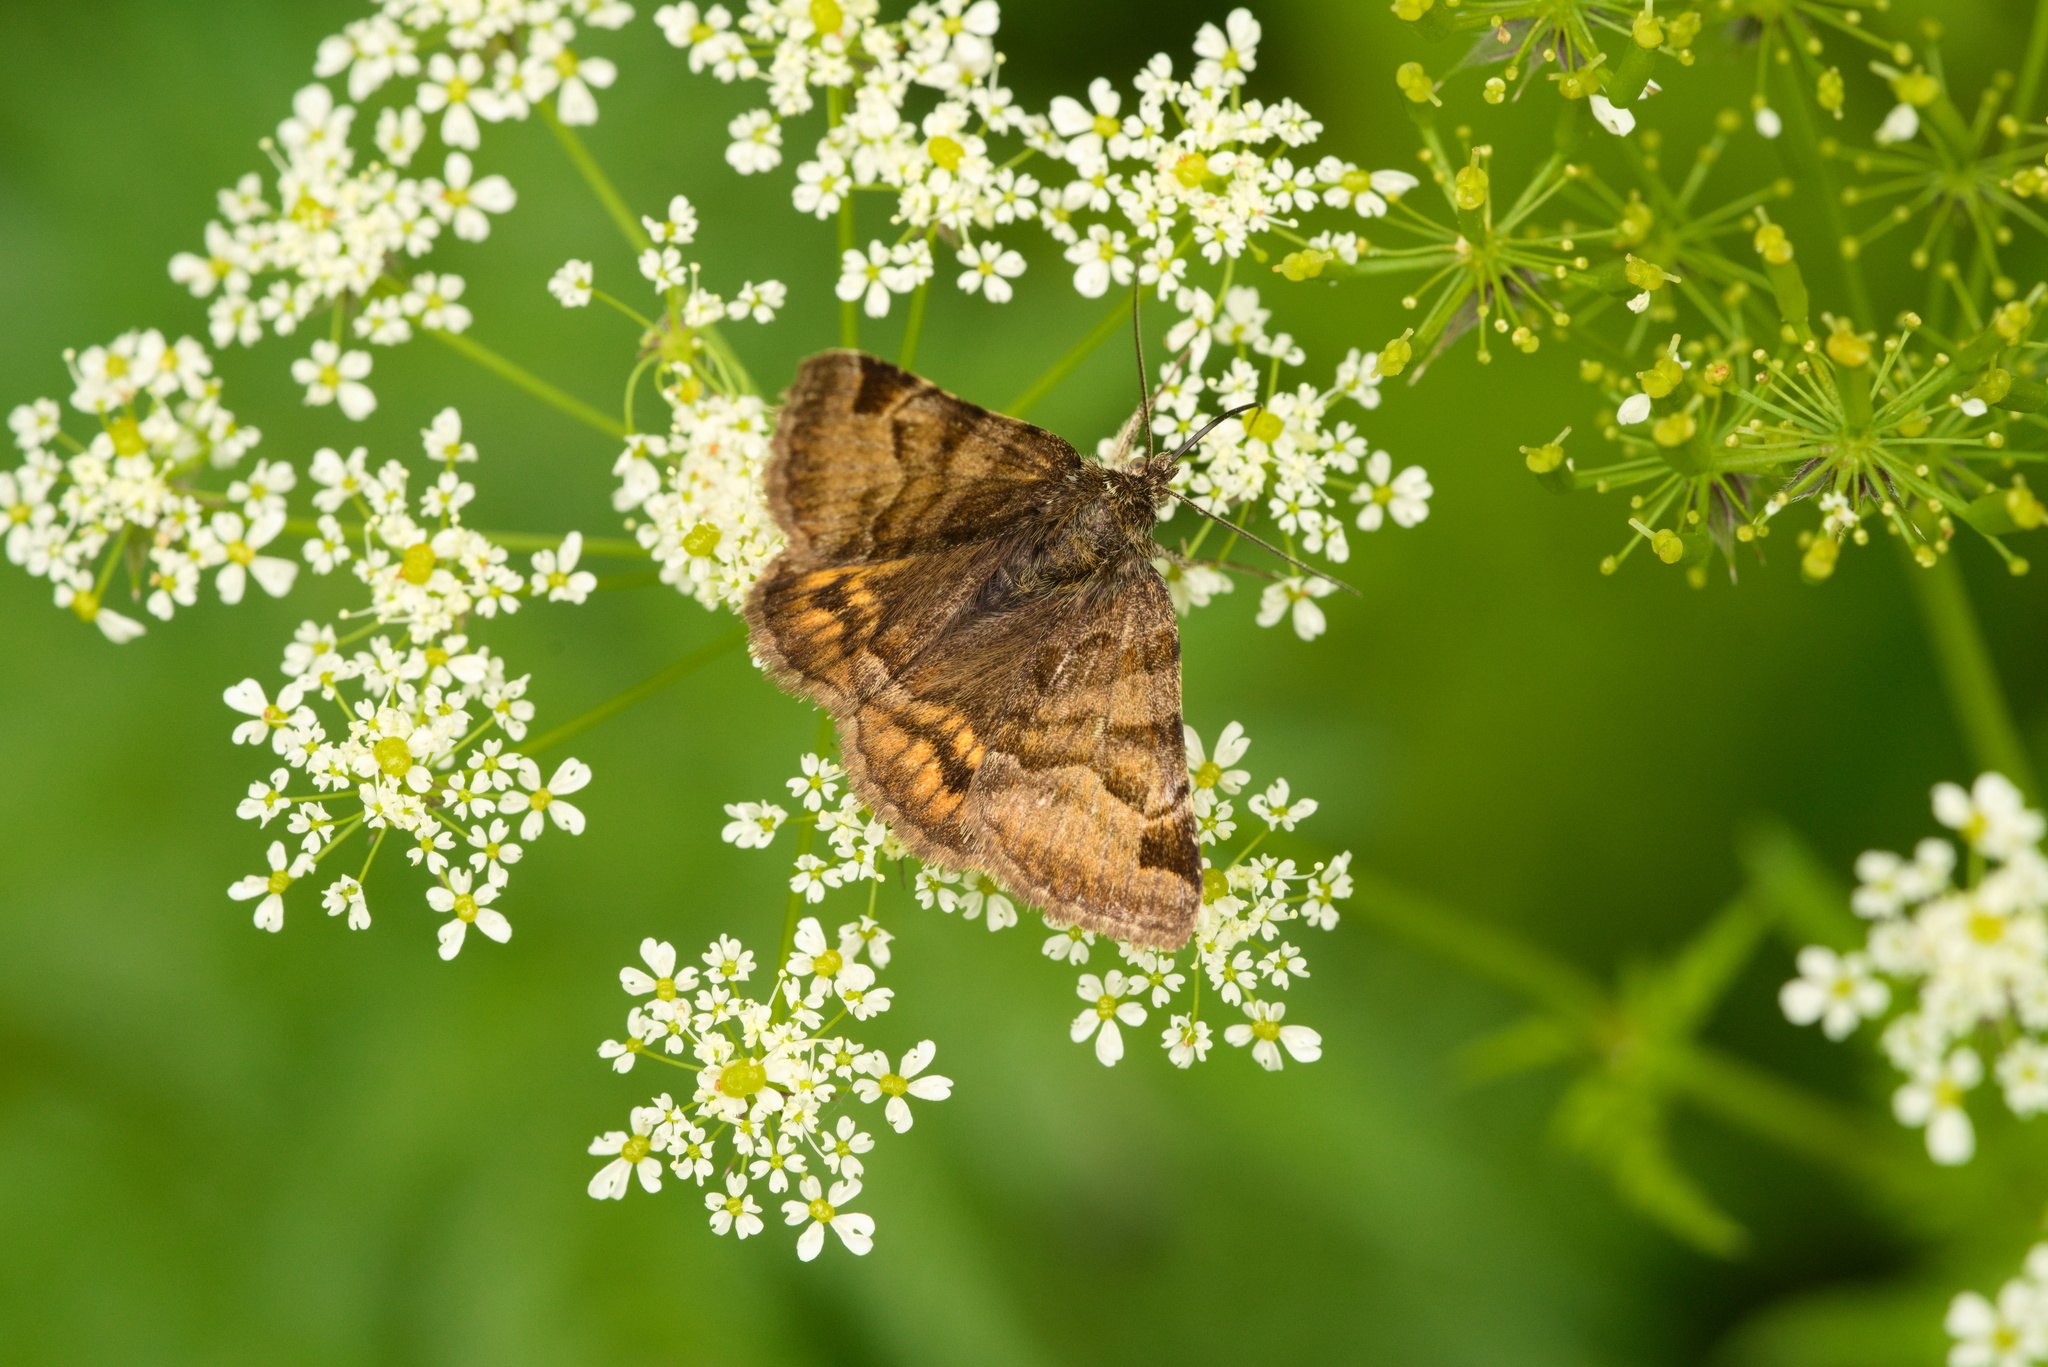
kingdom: Animalia
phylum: Arthropoda
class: Insecta
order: Lepidoptera
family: Erebidae
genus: Euclidia
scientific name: Euclidia glyphica
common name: Burnet companion
